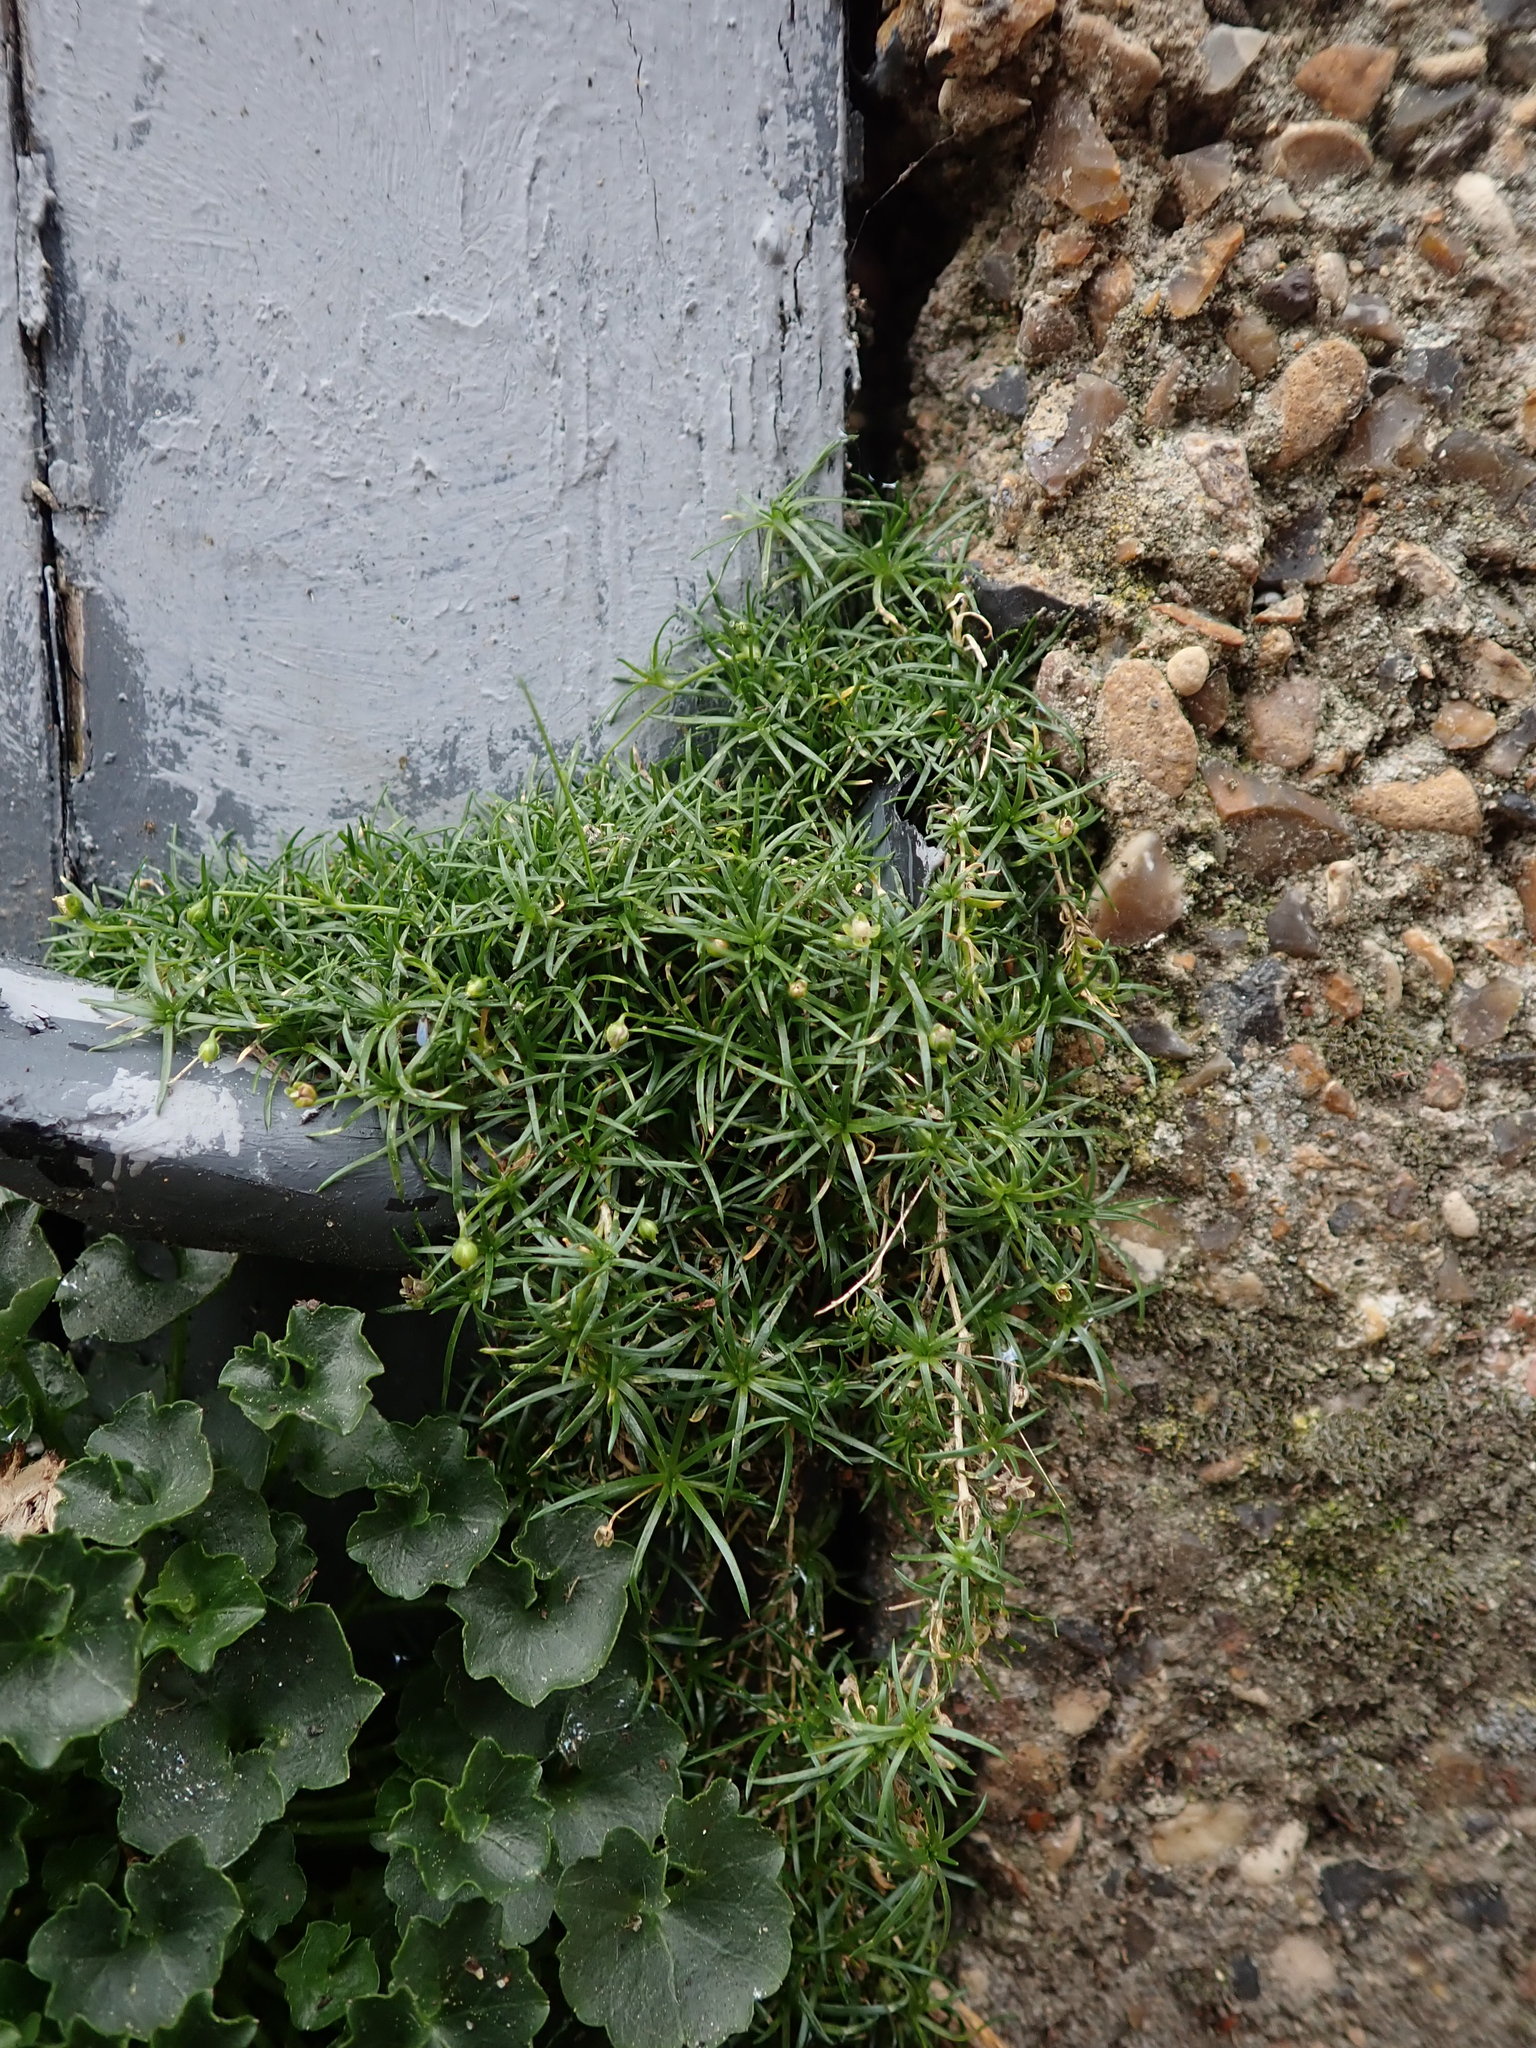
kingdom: Plantae
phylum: Tracheophyta
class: Magnoliopsida
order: Caryophyllales
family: Caryophyllaceae
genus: Sagina
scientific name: Sagina procumbens
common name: Procumbent pearlwort
